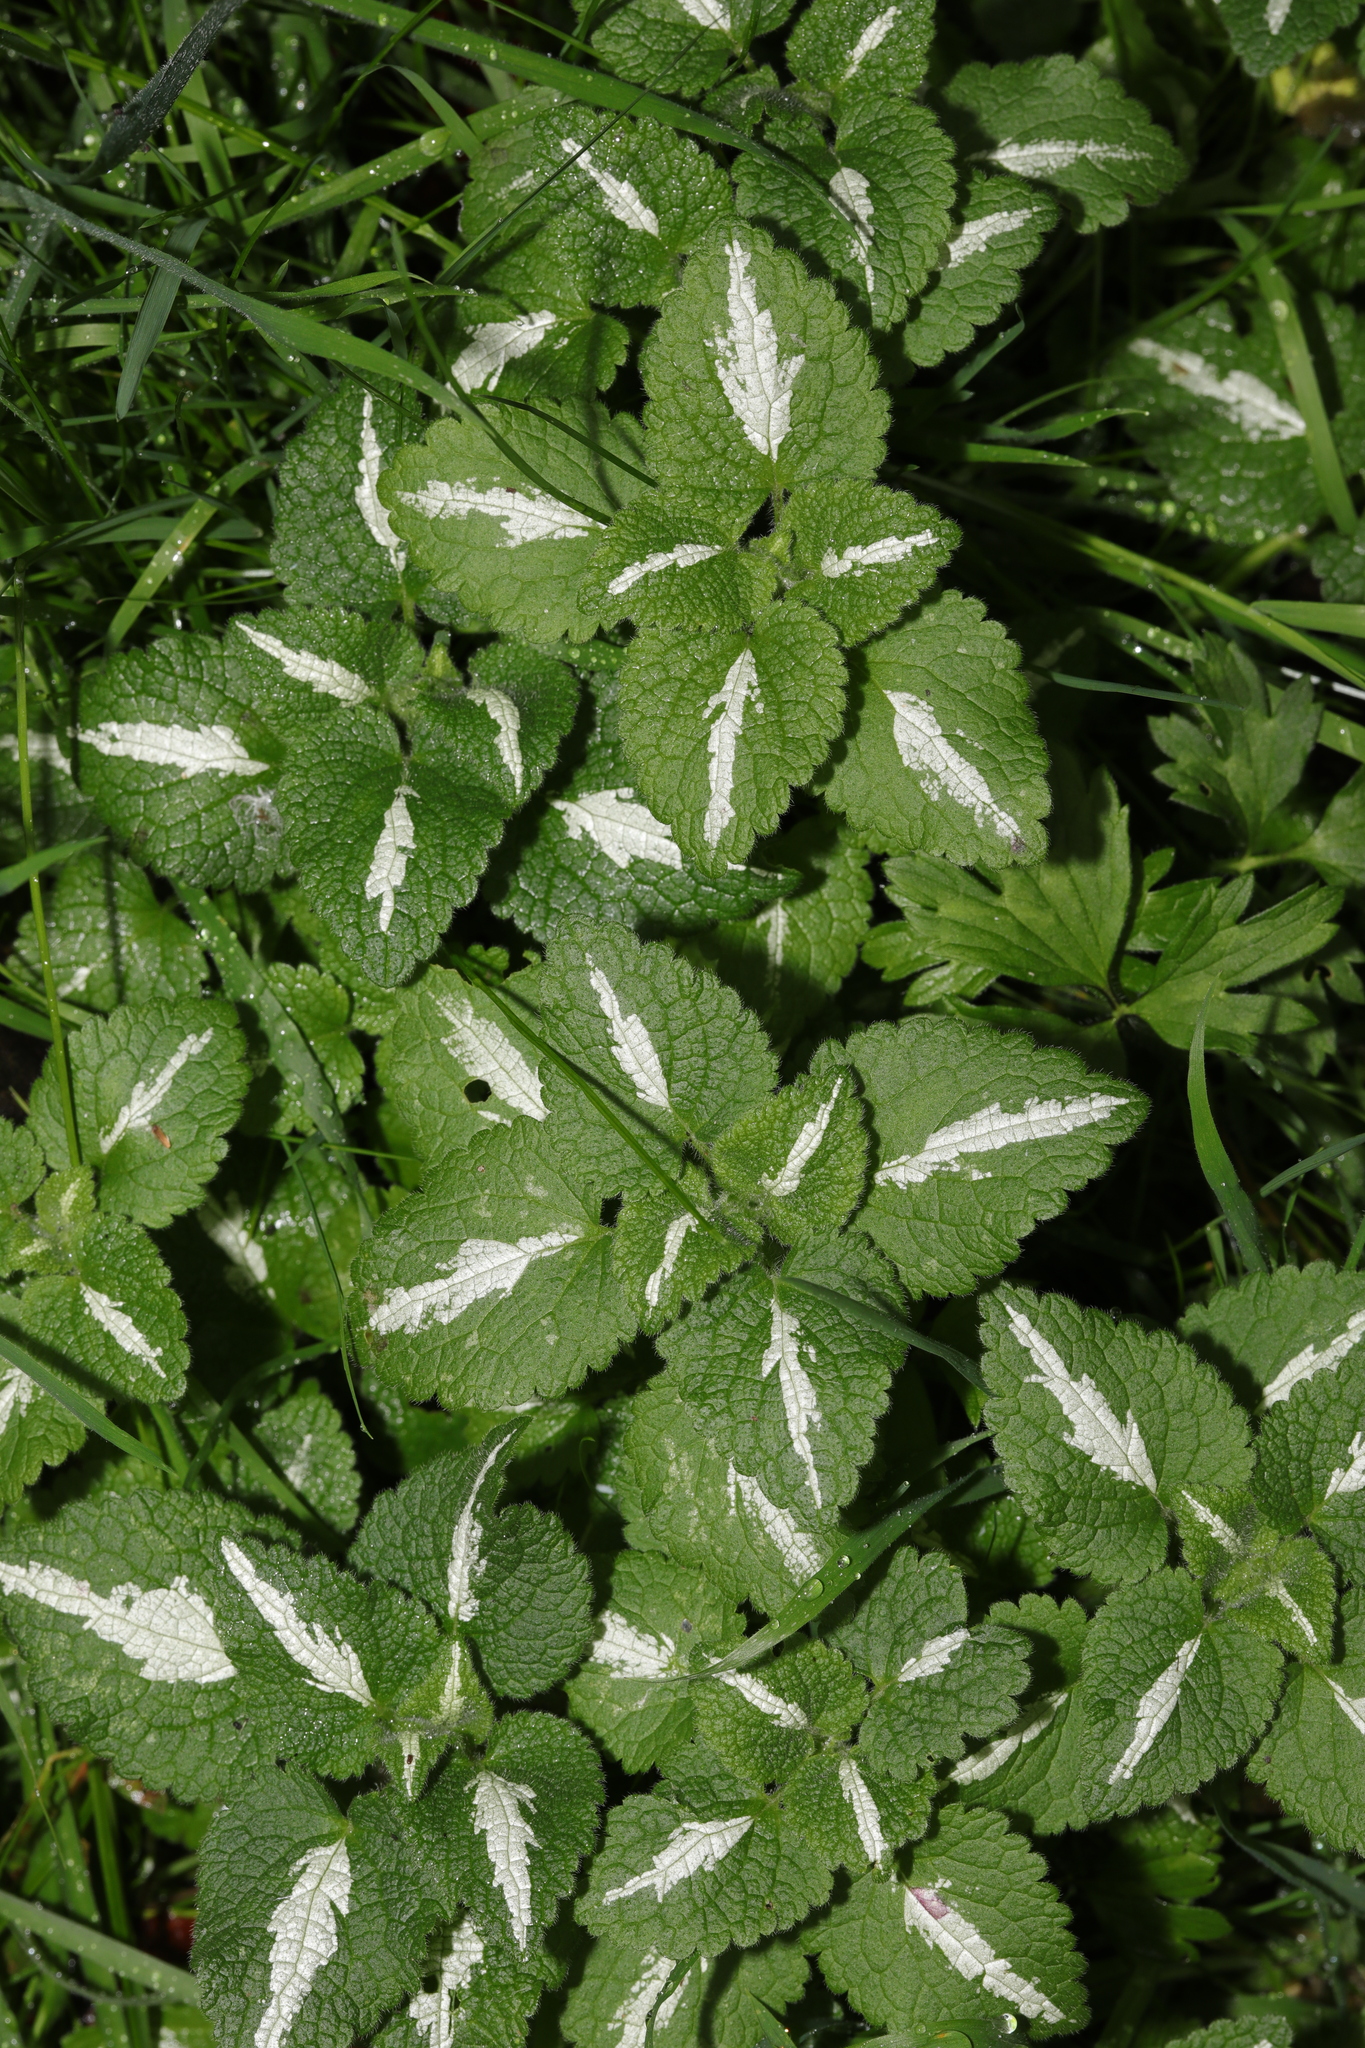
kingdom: Plantae
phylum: Tracheophyta
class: Magnoliopsida
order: Lamiales
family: Lamiaceae
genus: Lamium
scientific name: Lamium maculatum
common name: Spotted dead-nettle
